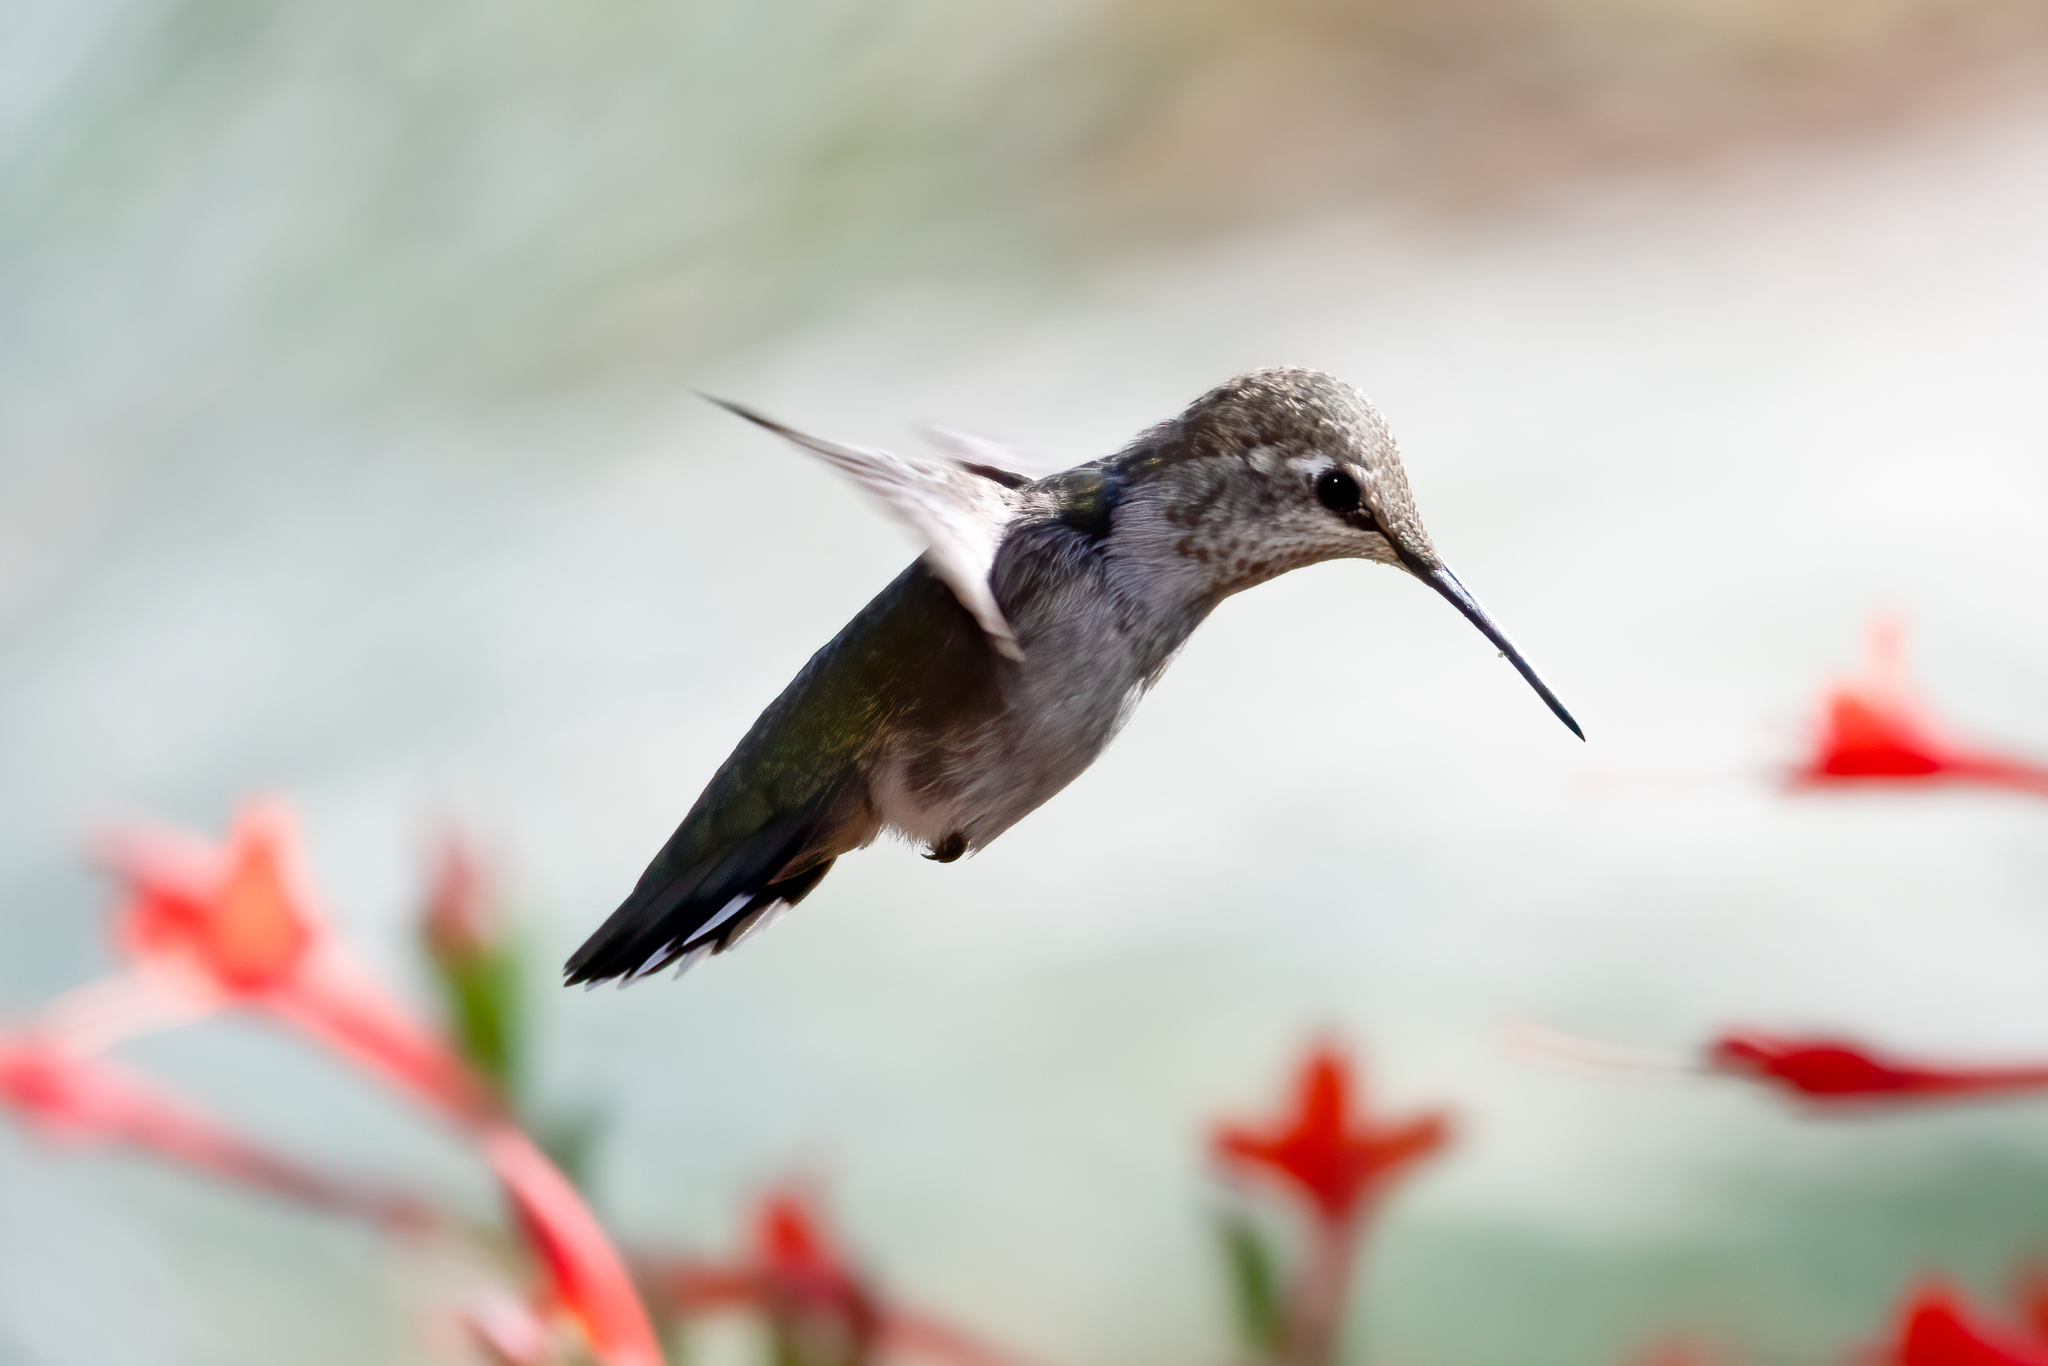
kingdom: Animalia
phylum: Chordata
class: Aves
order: Apodiformes
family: Trochilidae
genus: Calypte
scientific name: Calypte anna
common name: Anna's hummingbird
